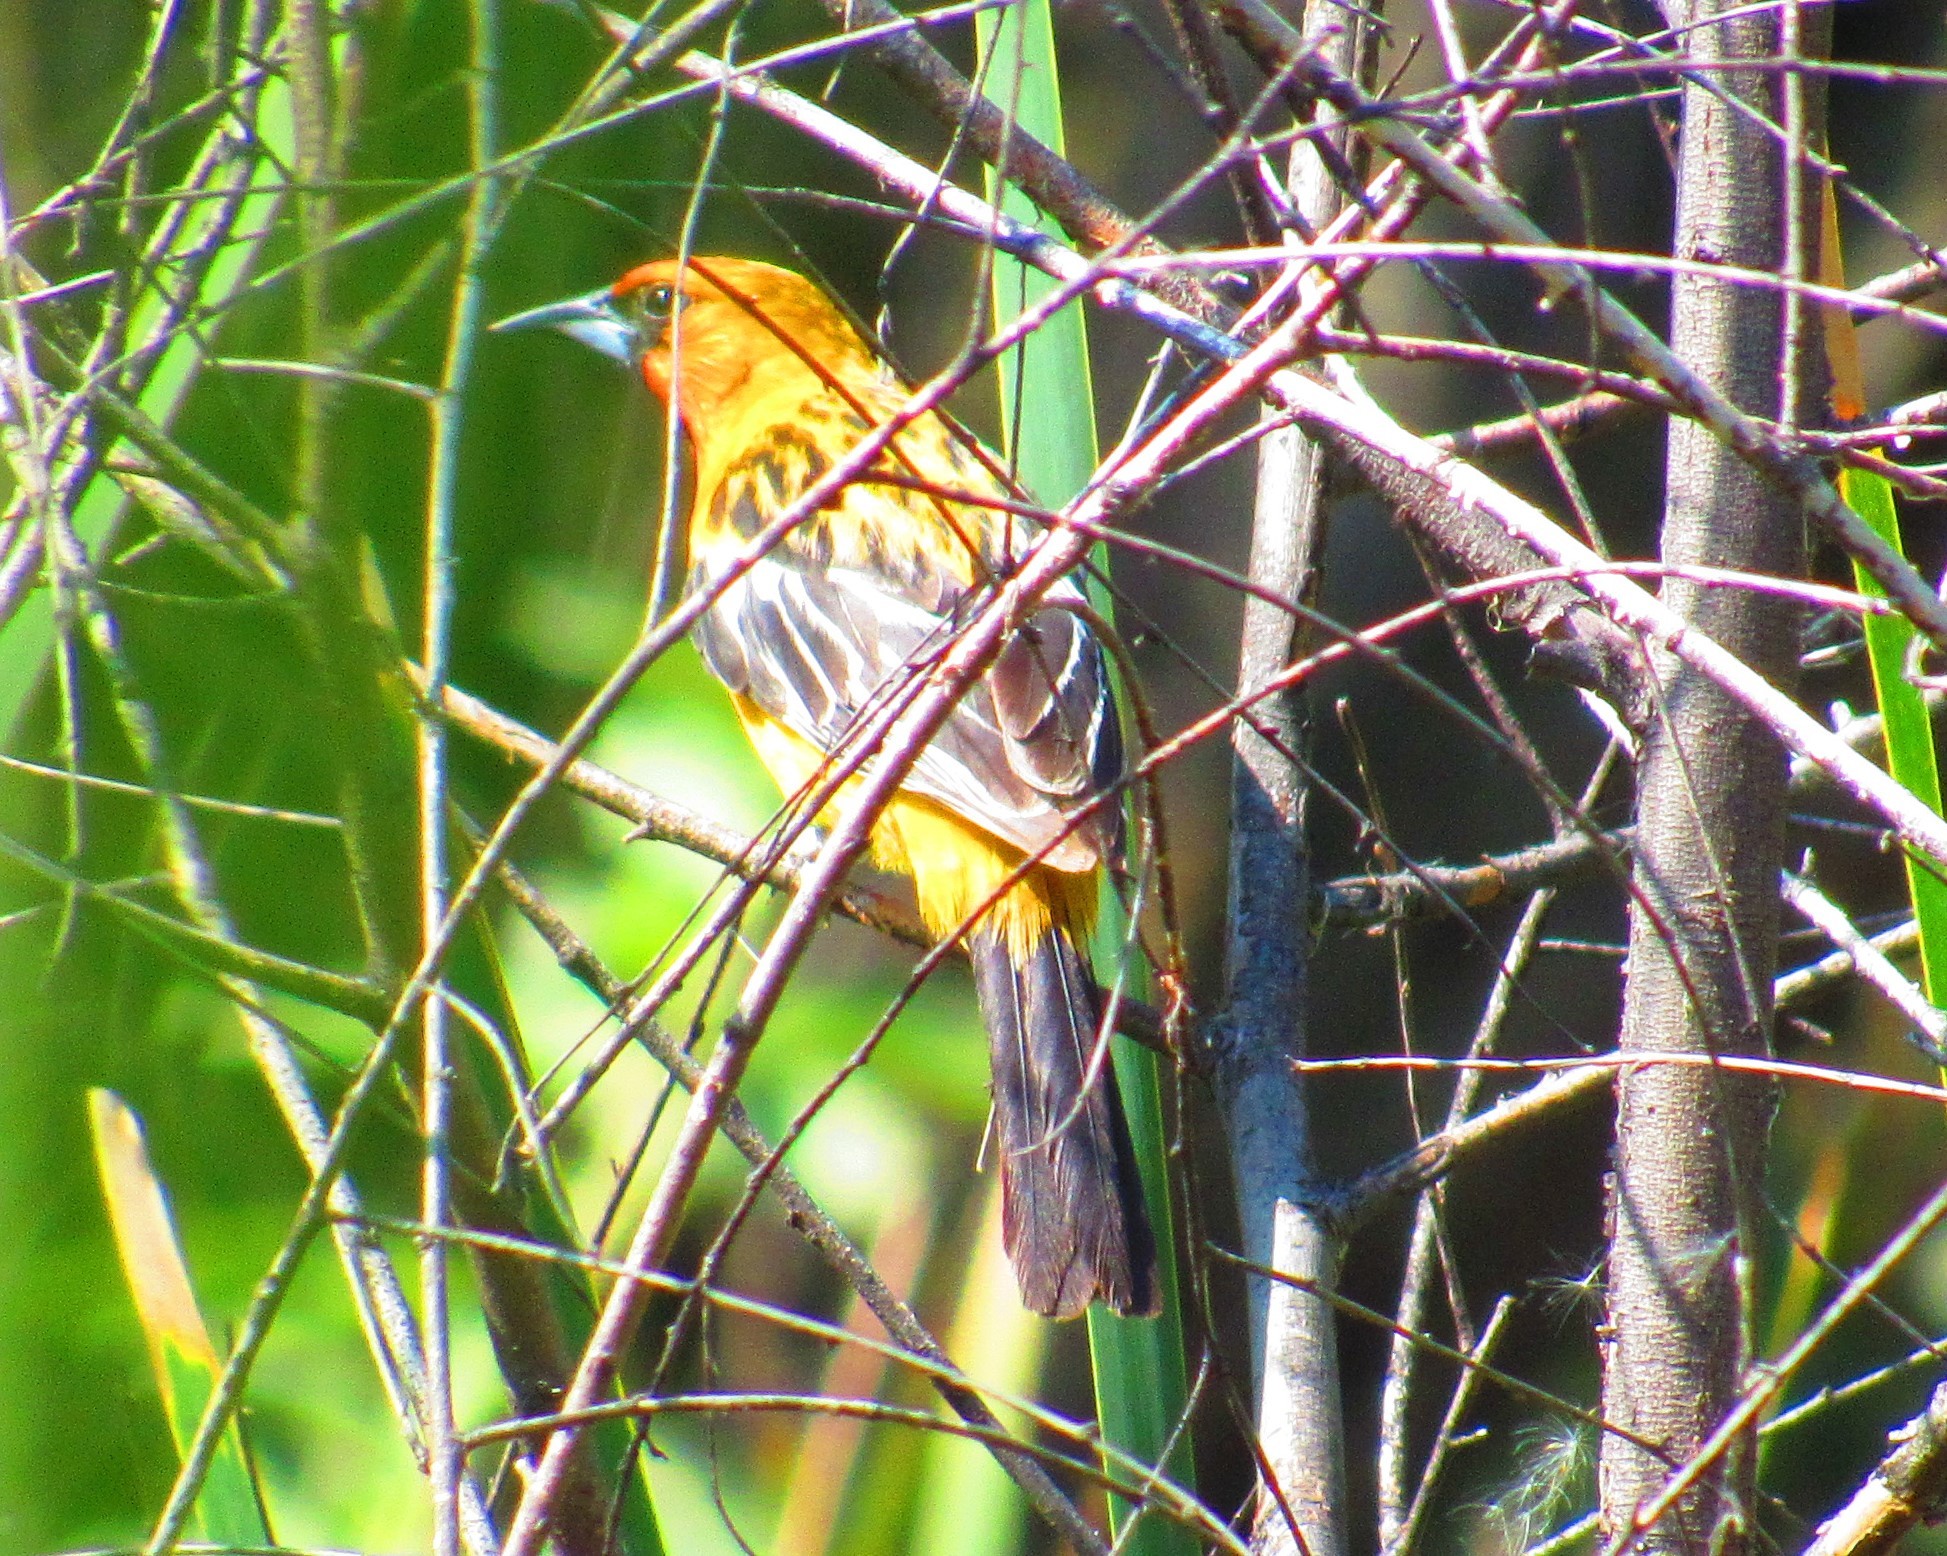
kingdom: Animalia
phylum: Chordata
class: Aves
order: Passeriformes
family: Icteridae
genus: Icterus
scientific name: Icterus pustulatus
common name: Streak-backed oriole
